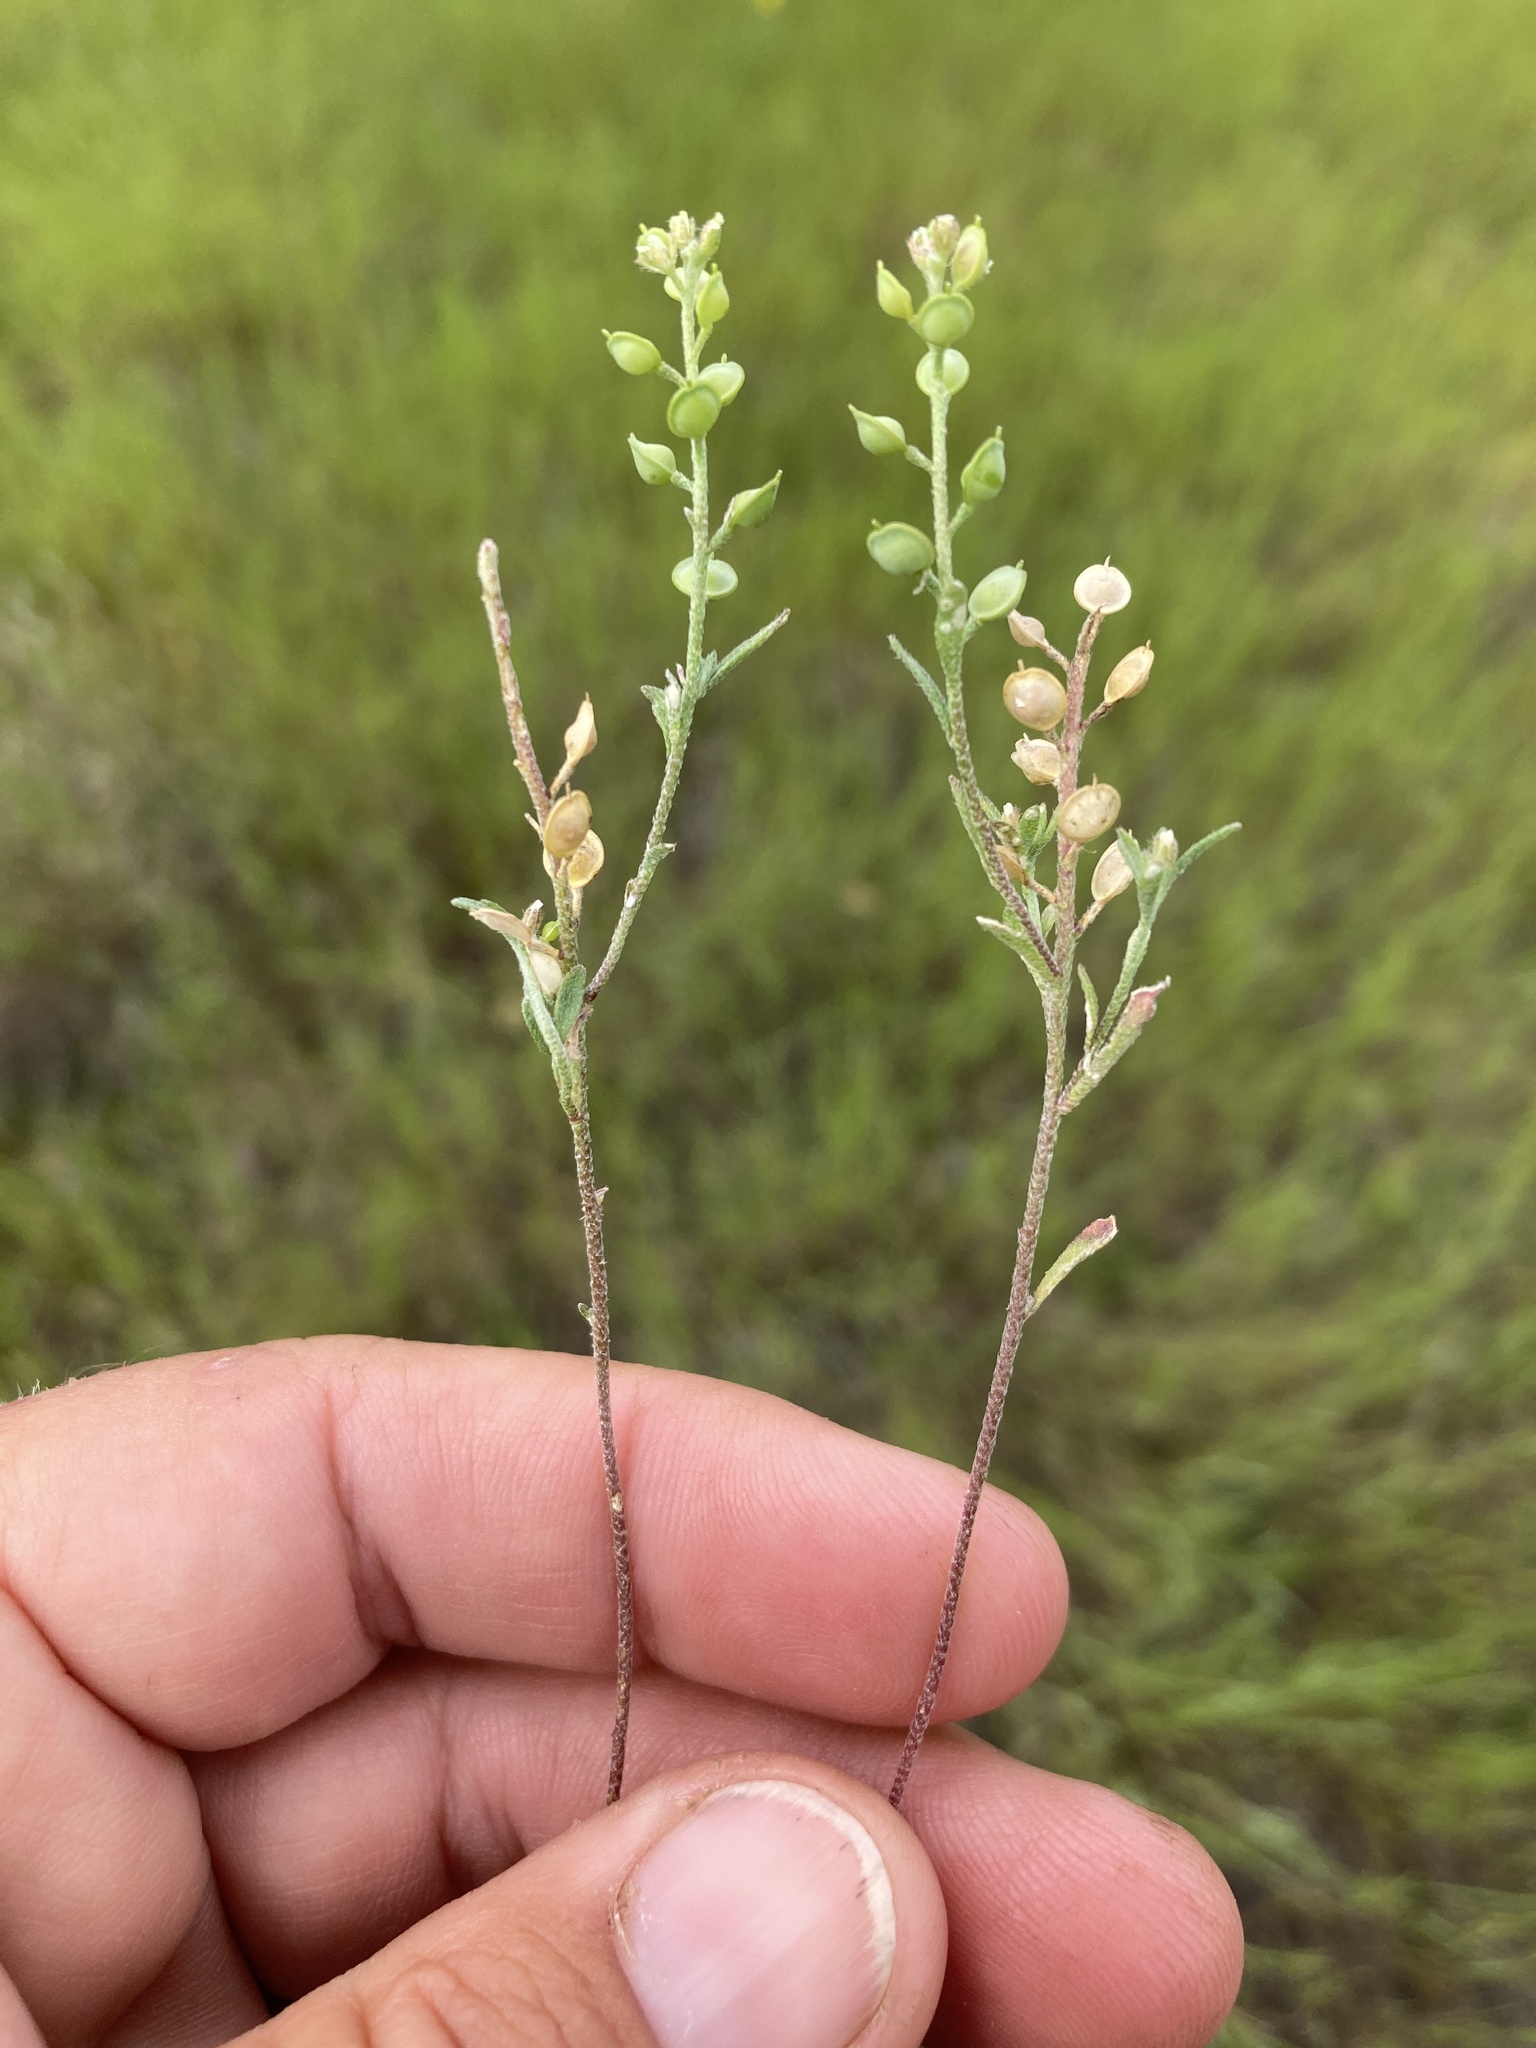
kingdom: Plantae
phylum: Tracheophyta
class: Magnoliopsida
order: Brassicales
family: Brassicaceae
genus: Alyssum
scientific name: Alyssum turkestanicum
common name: Desert alyssum
